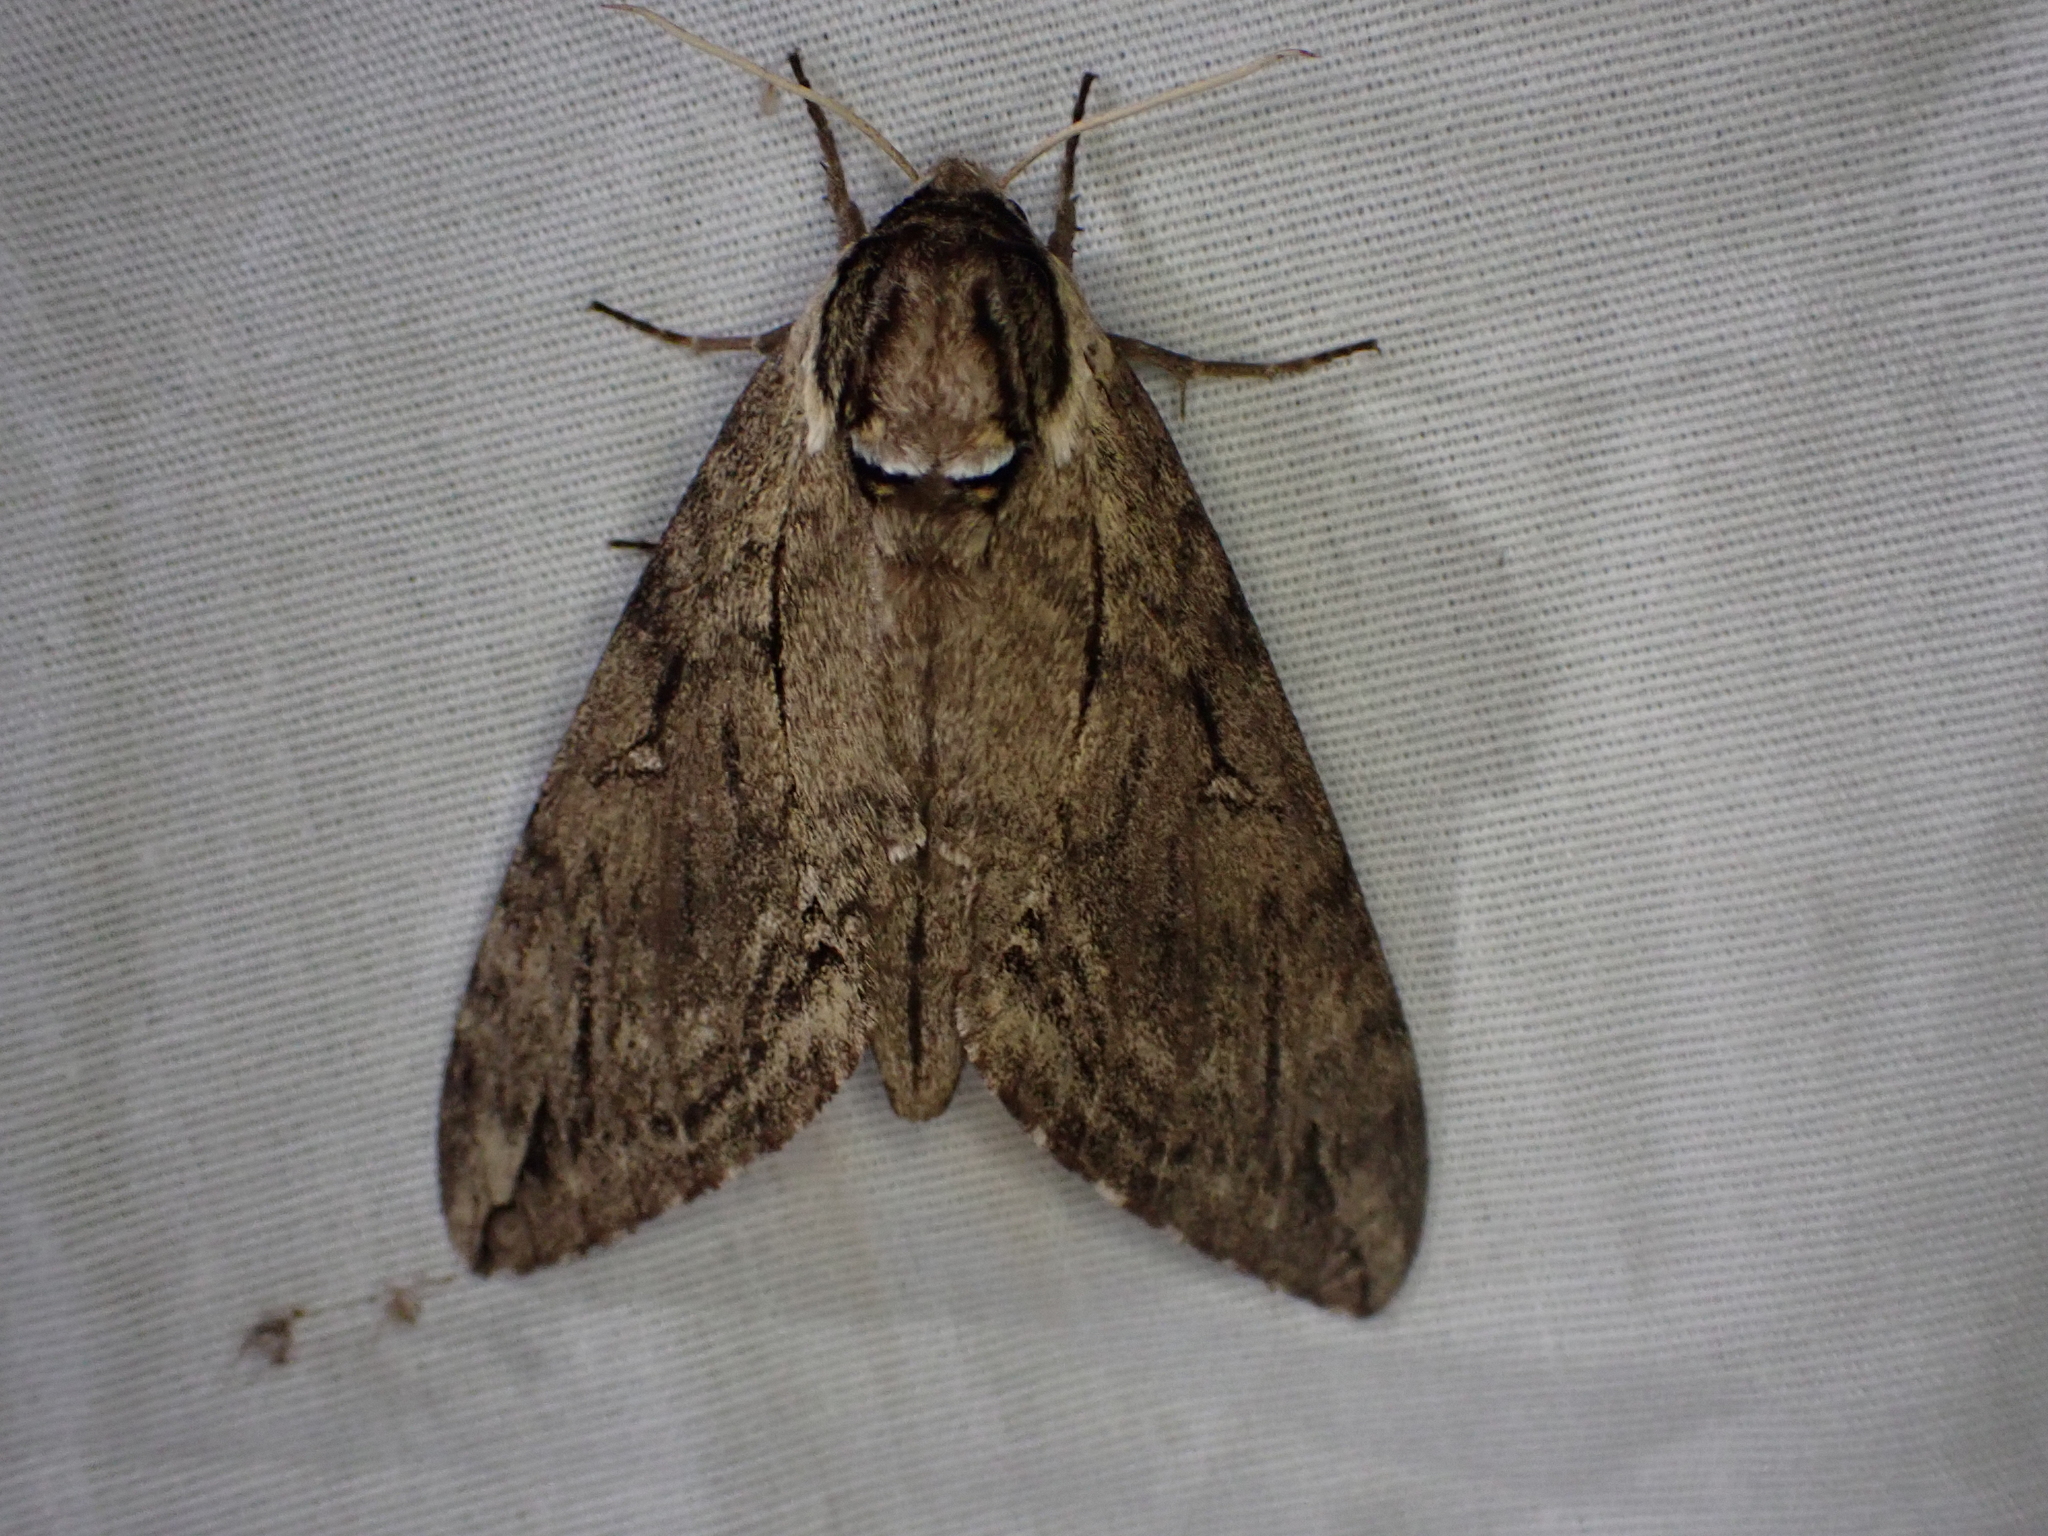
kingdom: Animalia
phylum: Arthropoda
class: Insecta
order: Lepidoptera
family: Sphingidae
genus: Ceratomia
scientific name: Ceratomia catalpae
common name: Catalpa hornworm
